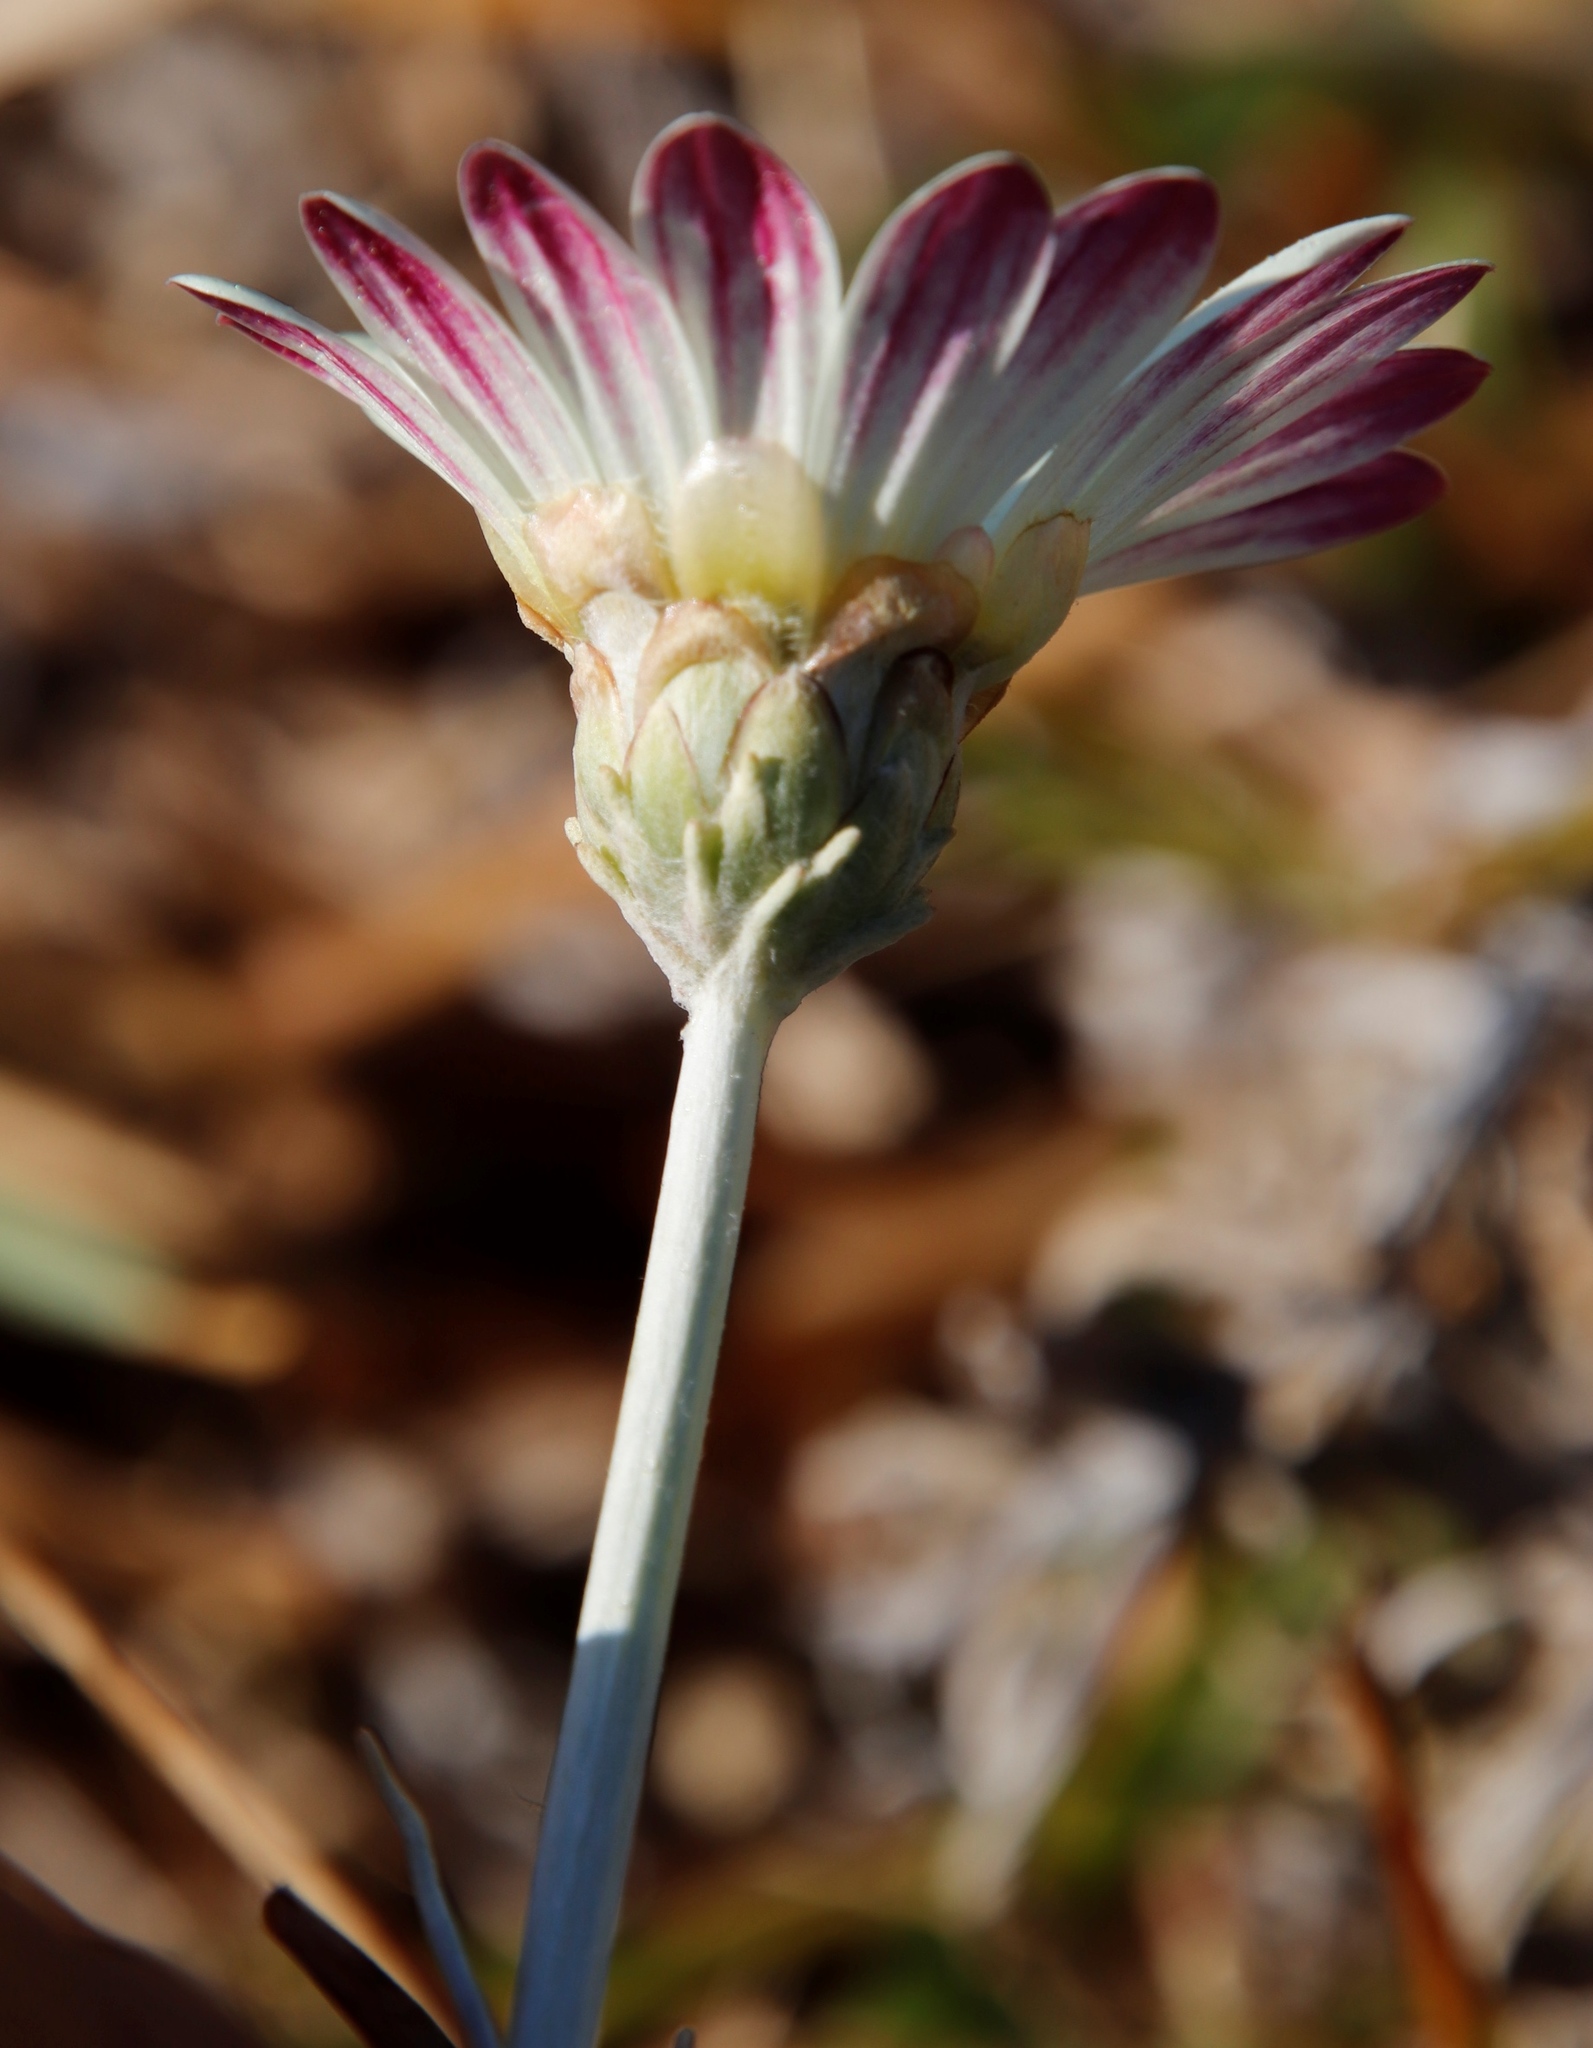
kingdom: Plantae
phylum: Tracheophyta
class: Magnoliopsida
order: Asterales
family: Asteraceae
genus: Arctotis
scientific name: Arctotis stoechadifolia
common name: African daisy
